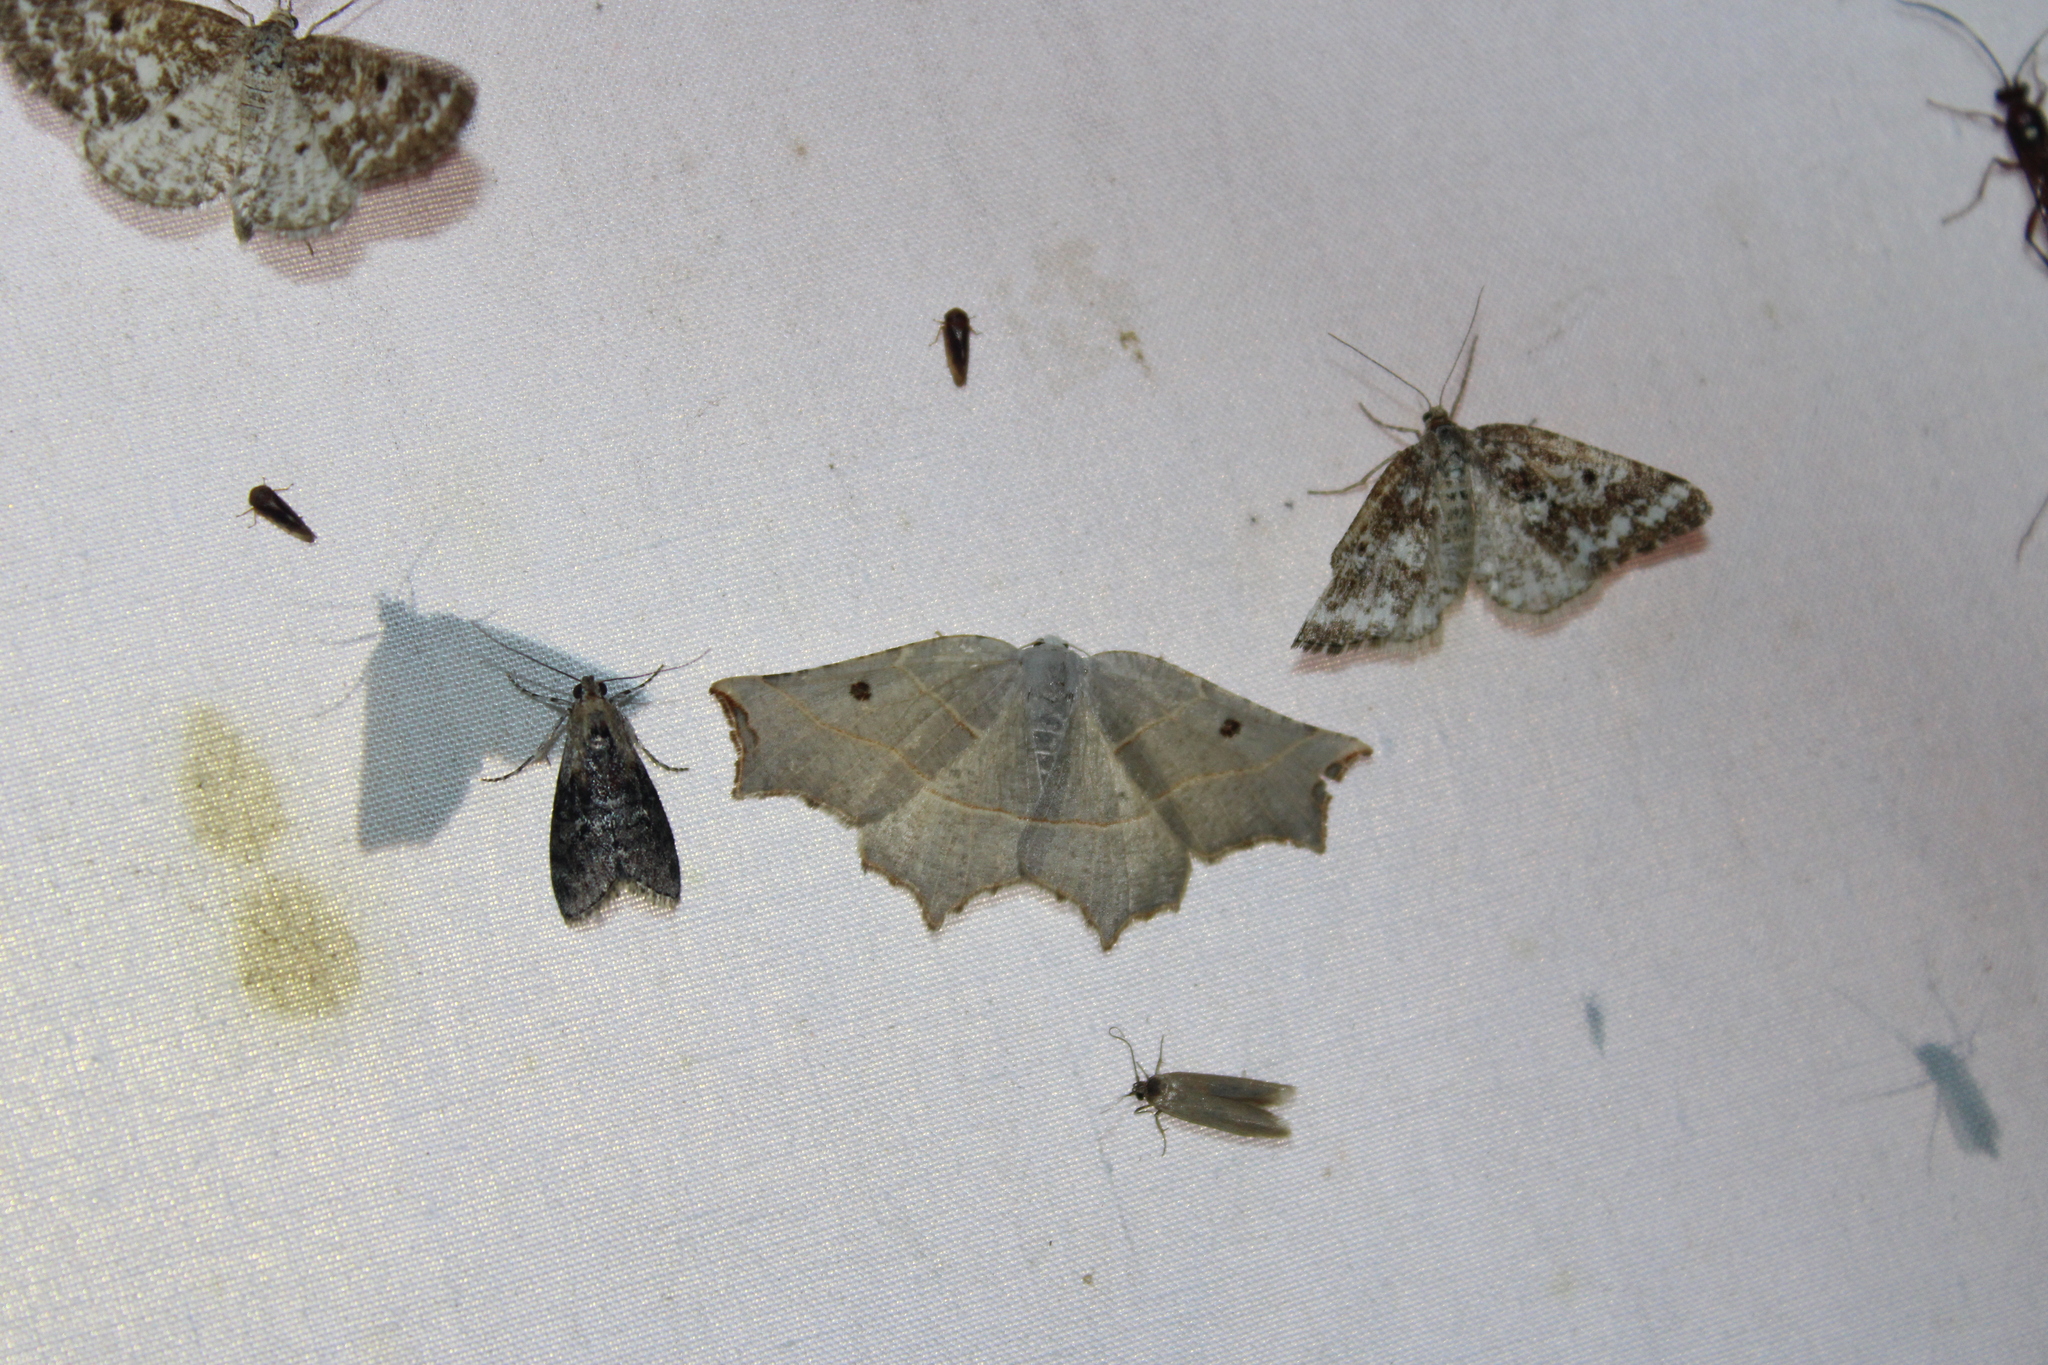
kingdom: Animalia
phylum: Arthropoda
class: Insecta
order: Lepidoptera
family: Geometridae
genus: Metanema
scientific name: Metanema inatomaria
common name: Pale metanema
